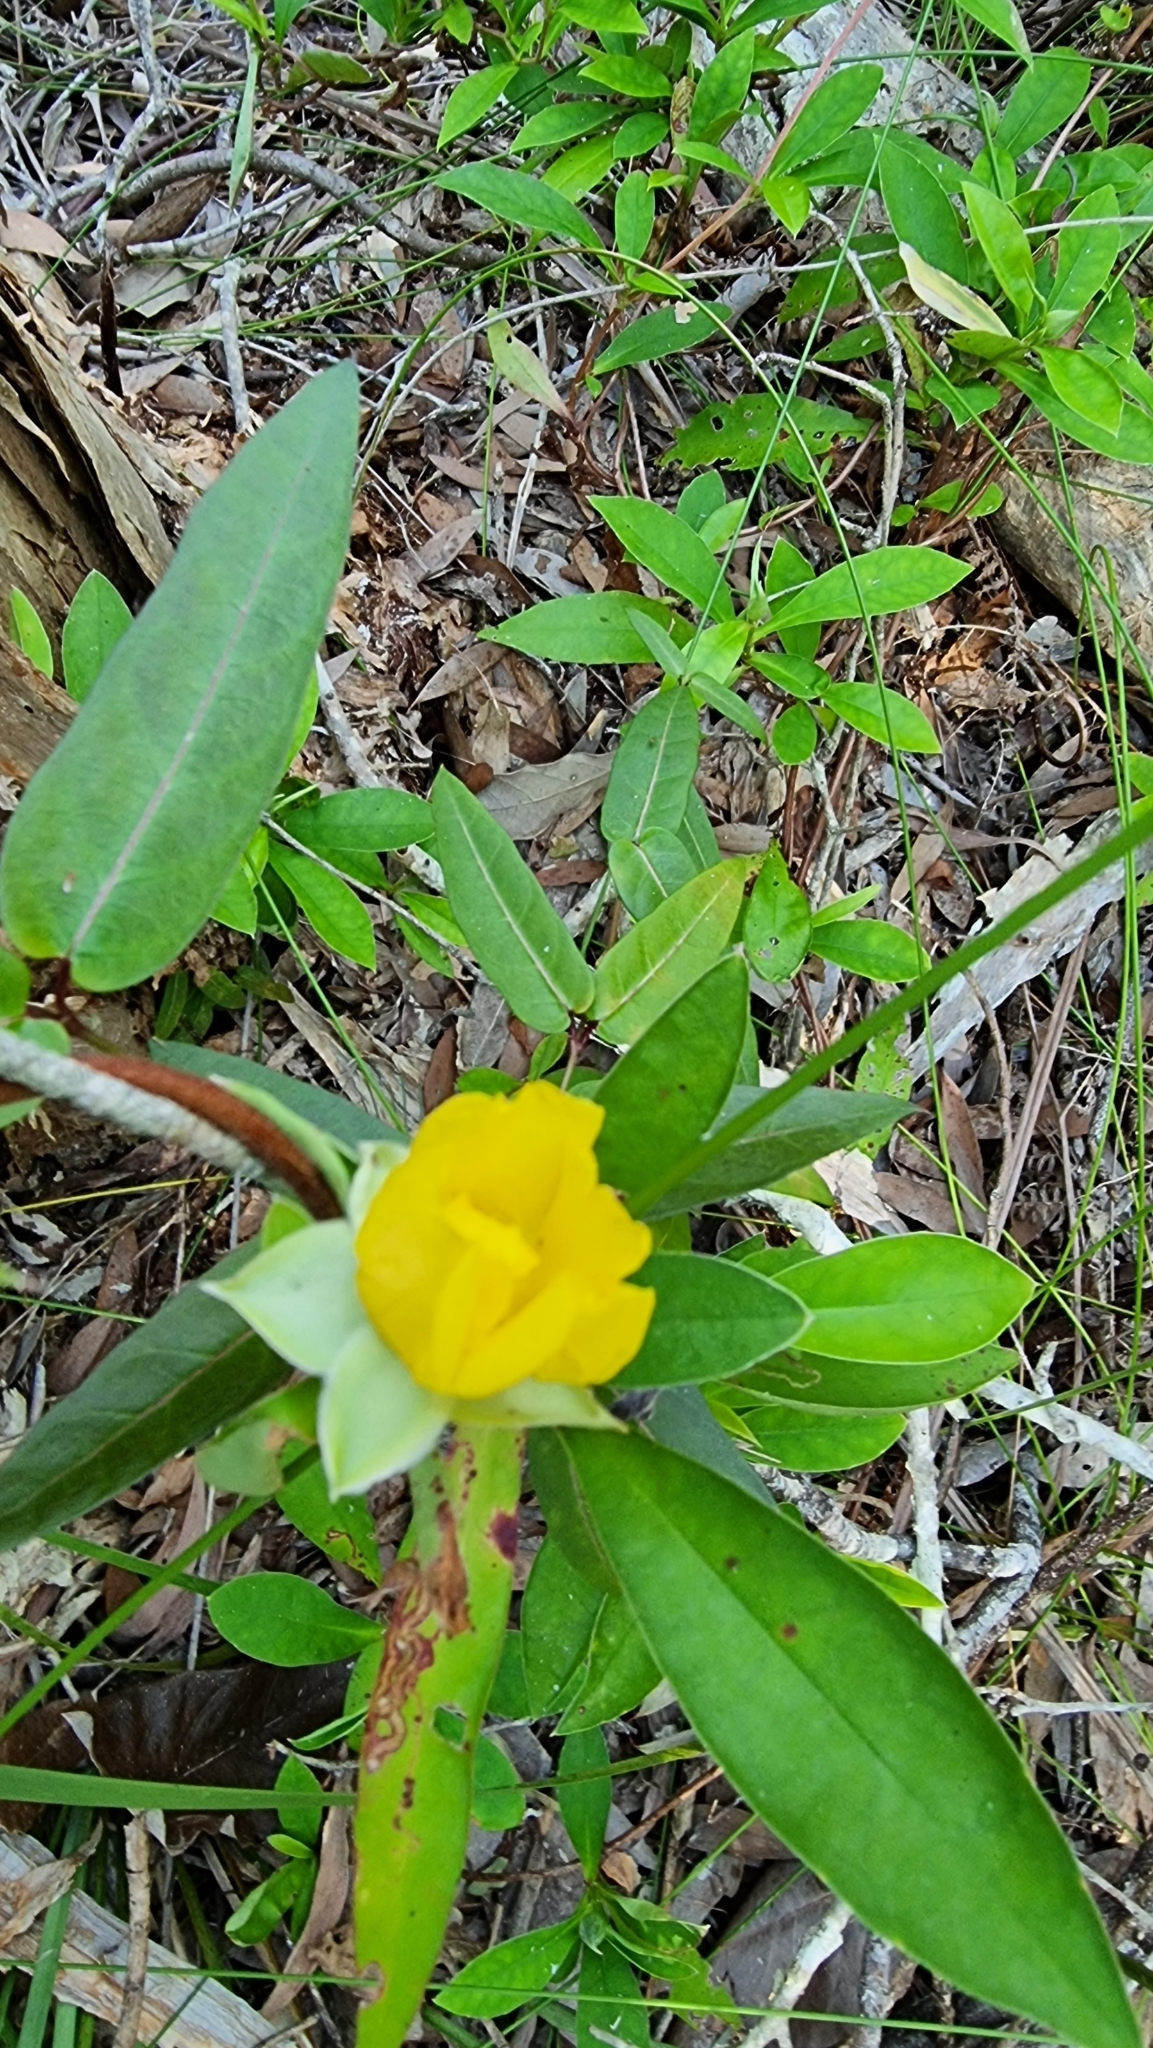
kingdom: Plantae
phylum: Tracheophyta
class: Magnoliopsida
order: Dilleniales
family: Dilleniaceae
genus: Hibbertia
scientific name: Hibbertia scandens
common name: Climbing guinea-flower
